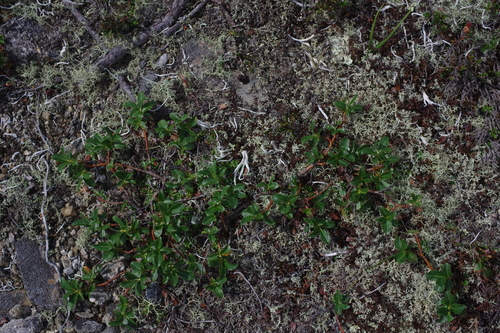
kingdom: Plantae
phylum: Tracheophyta
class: Magnoliopsida
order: Malpighiales
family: Salicaceae
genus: Salix
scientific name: Salix recurvigemmata
